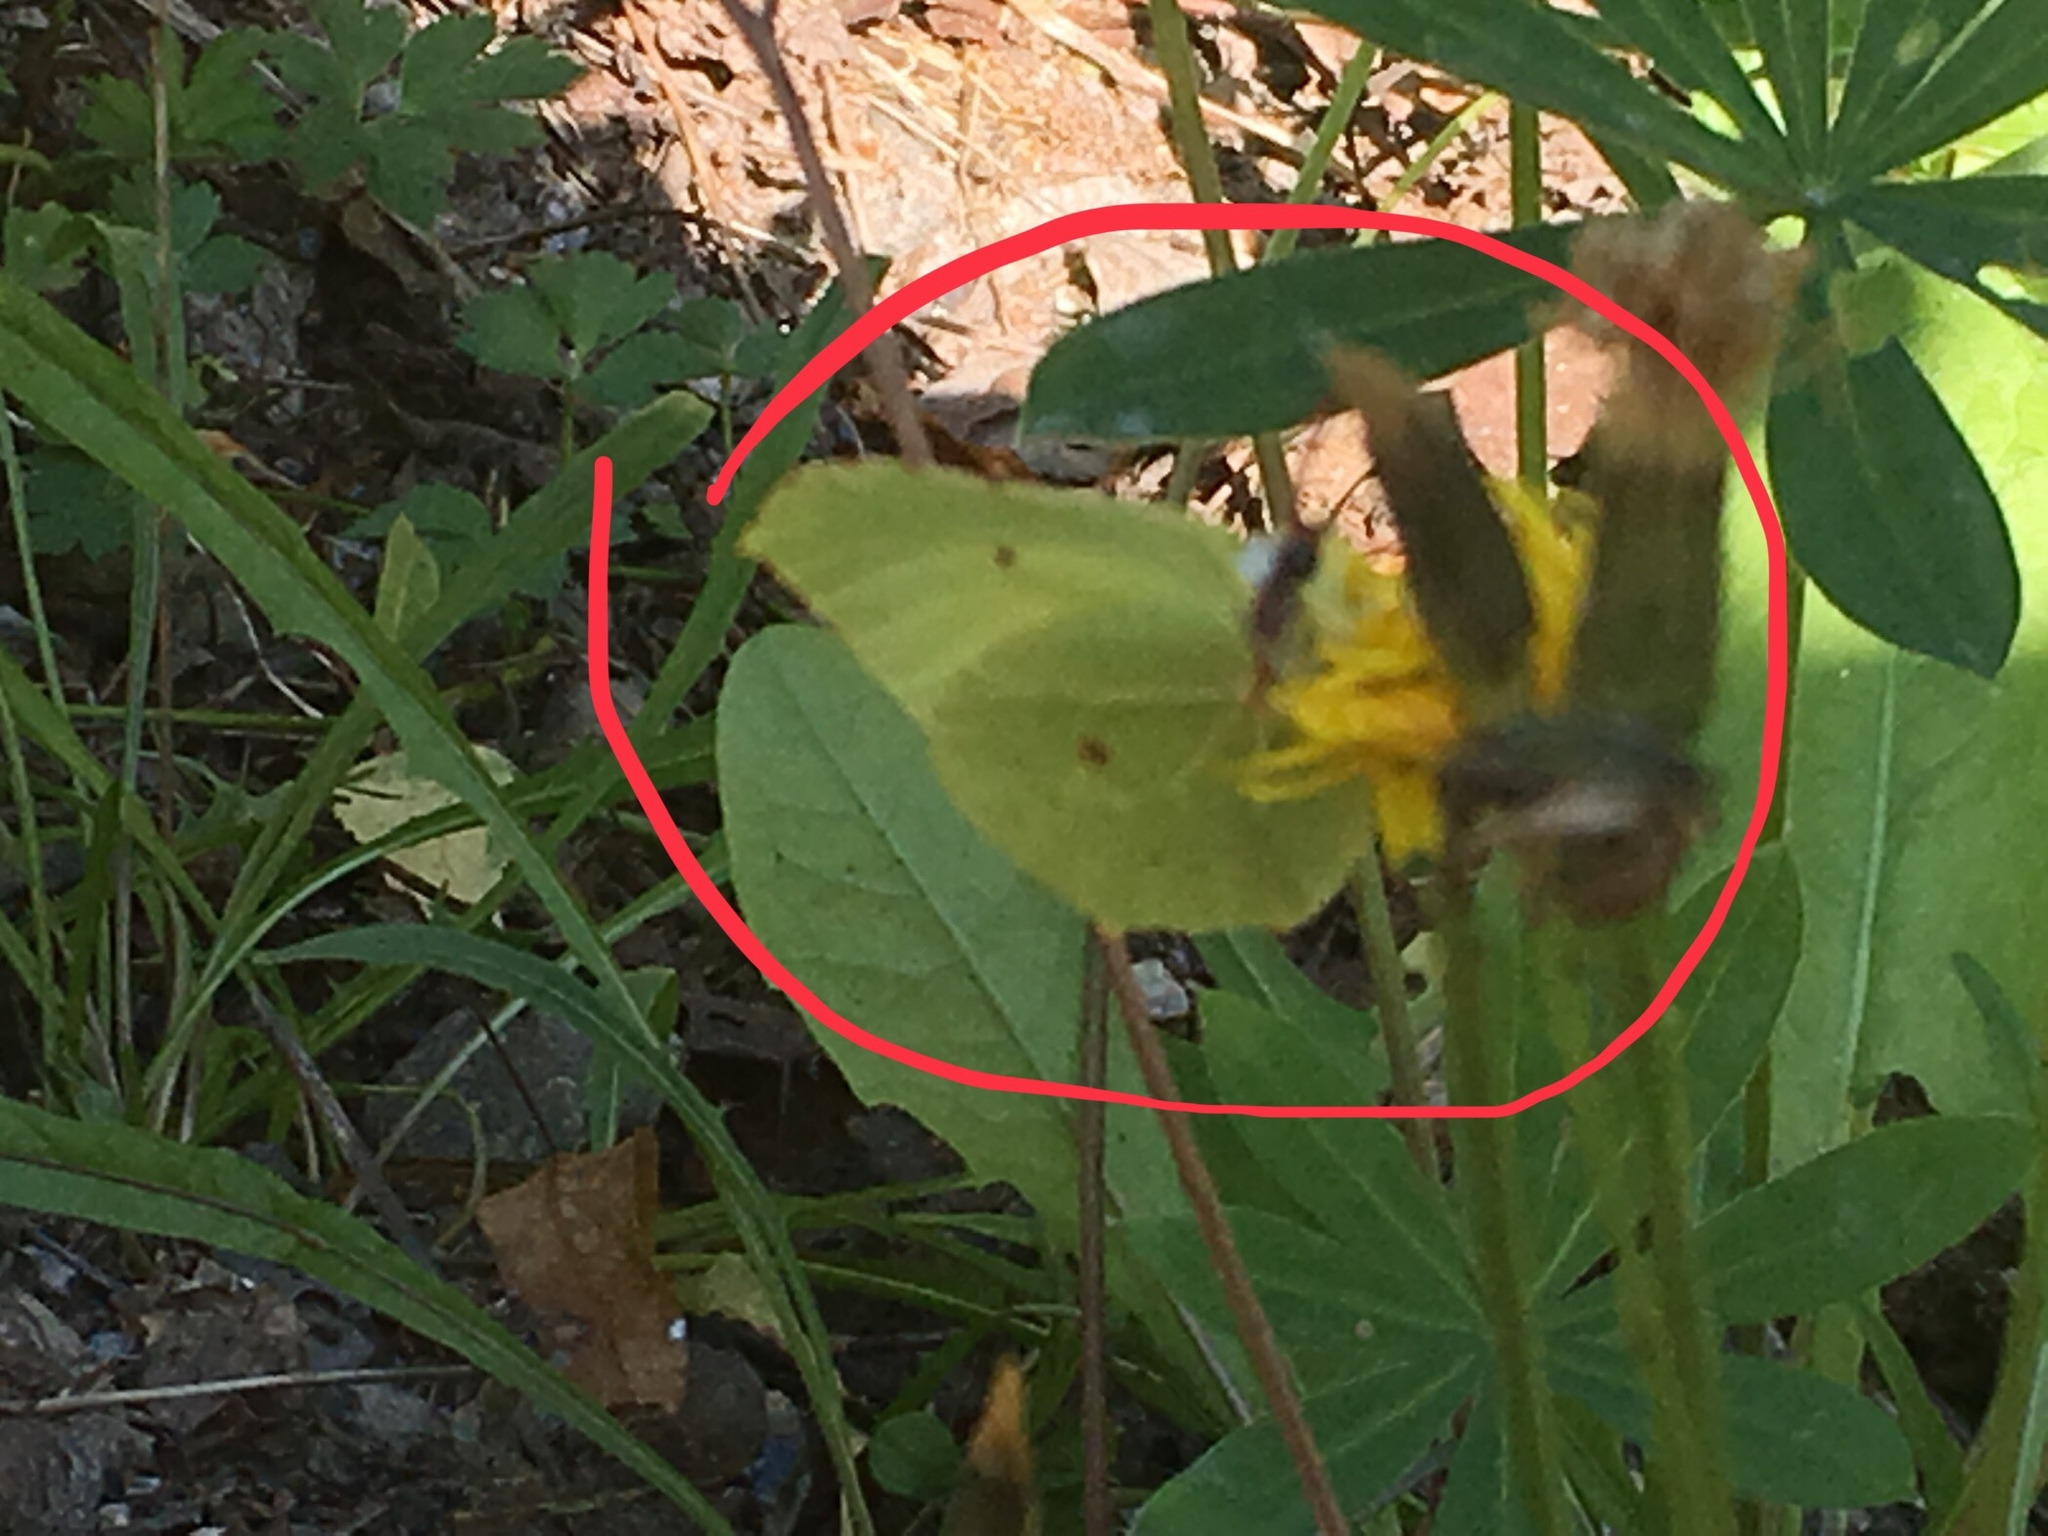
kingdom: Animalia
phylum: Arthropoda
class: Insecta
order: Lepidoptera
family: Pieridae
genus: Gonepteryx
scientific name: Gonepteryx rhamni
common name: Brimstone
